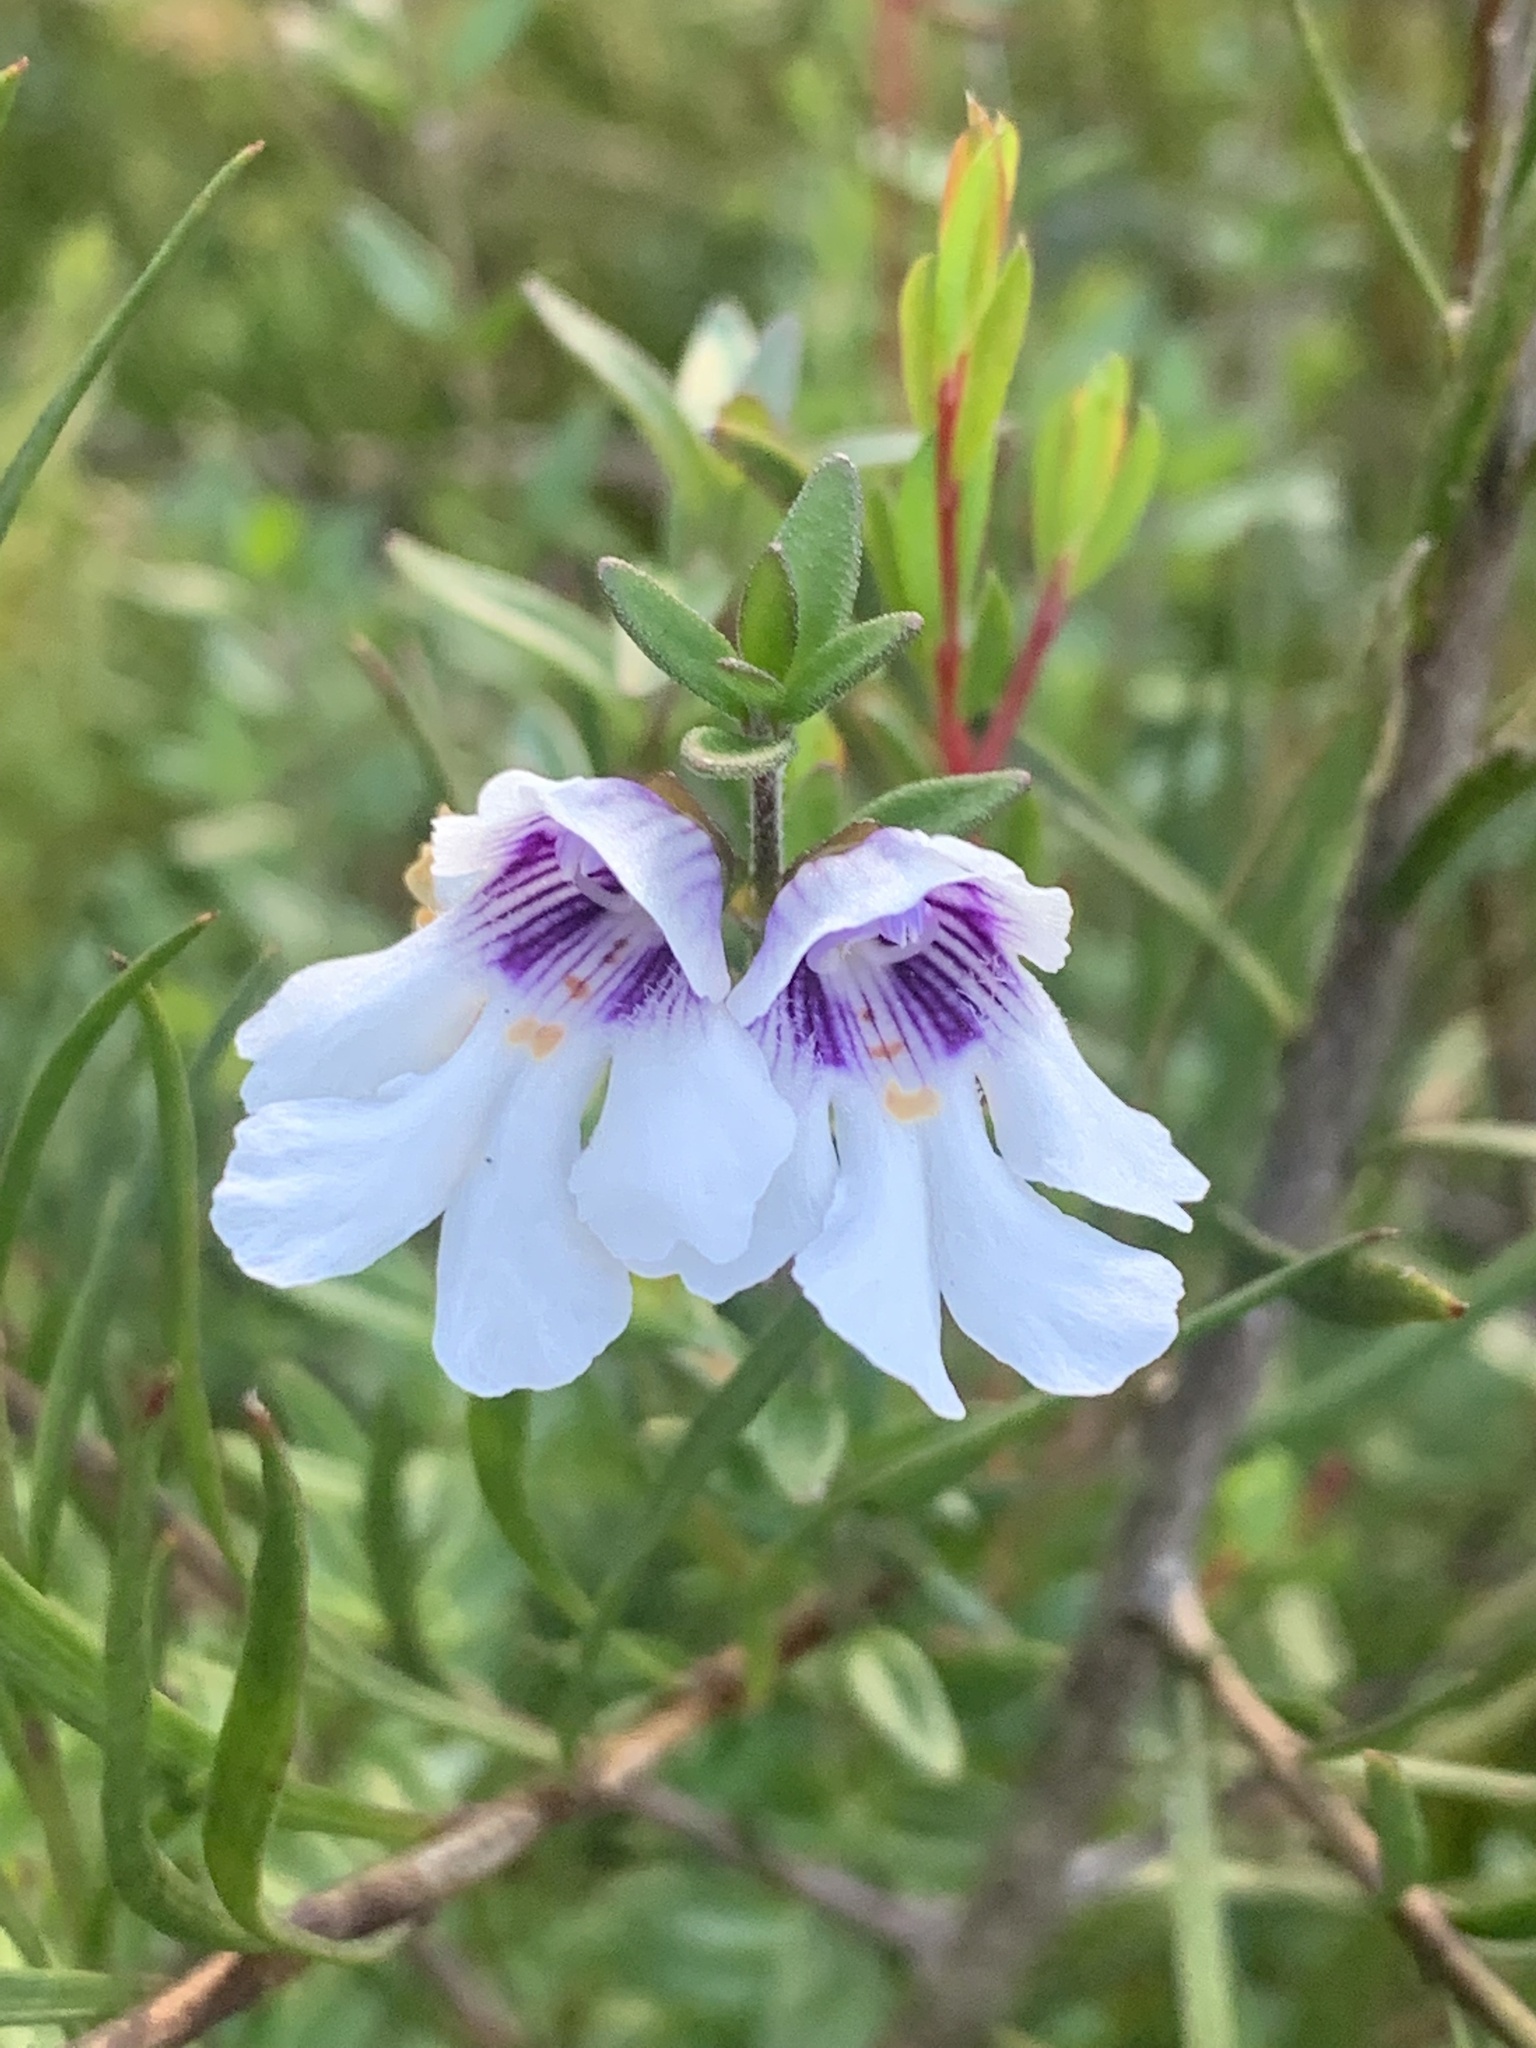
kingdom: Plantae
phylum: Tracheophyta
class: Magnoliopsida
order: Lamiales
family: Lamiaceae
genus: Prostanthera
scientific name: Prostanthera saxicola
